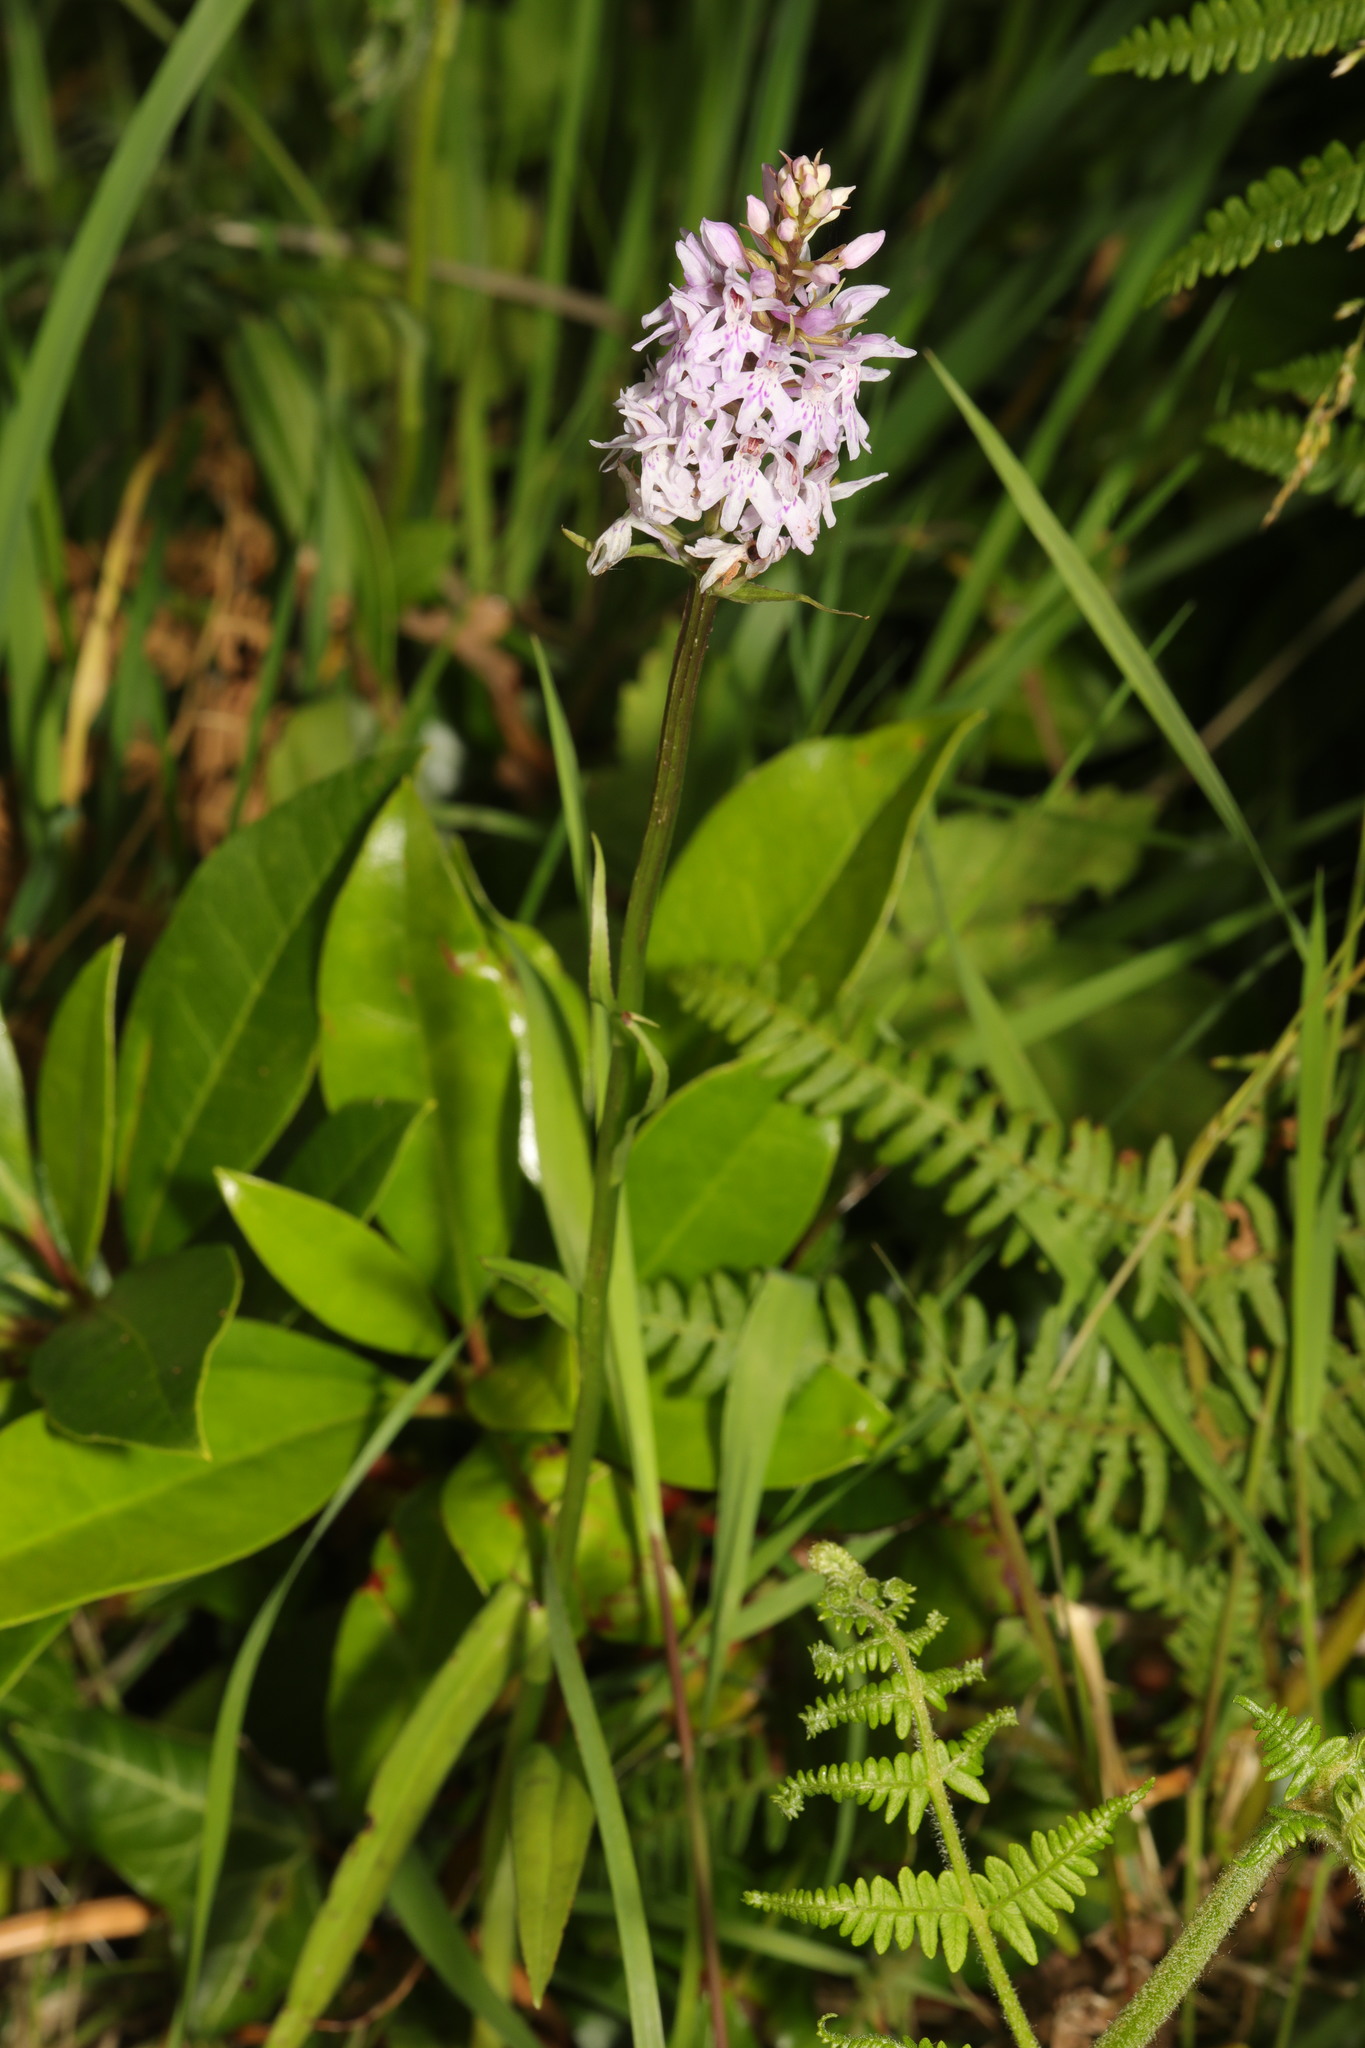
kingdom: Plantae
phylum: Tracheophyta
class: Liliopsida
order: Asparagales
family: Orchidaceae
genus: Dactylorhiza
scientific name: Dactylorhiza maculata
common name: Heath spotted-orchid
